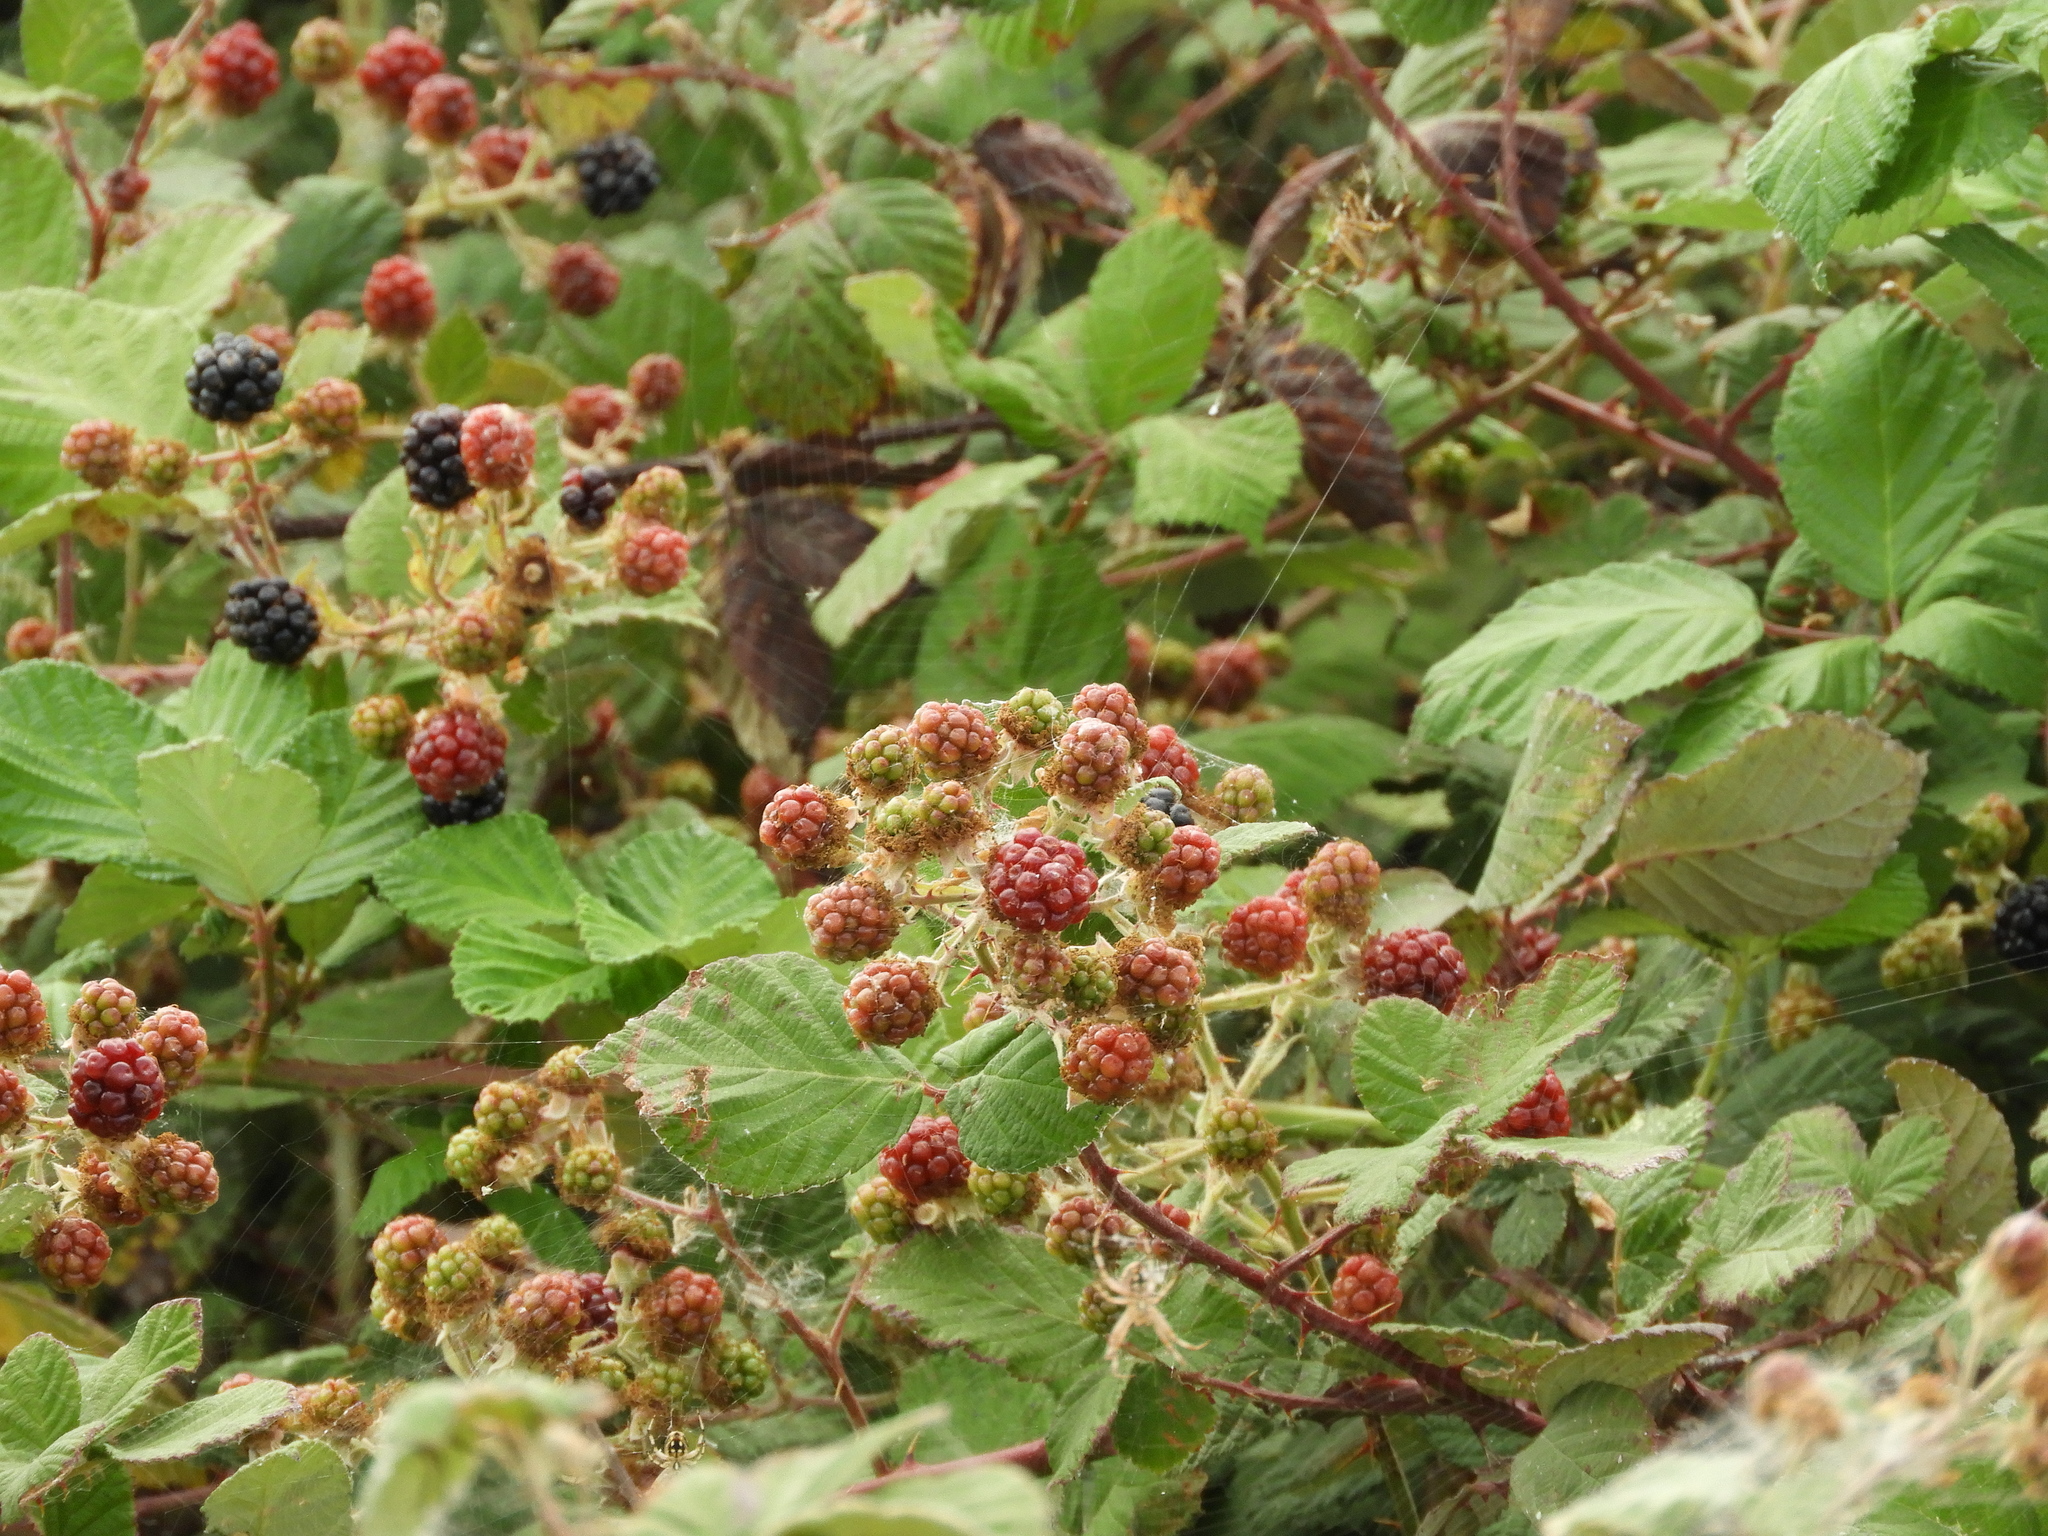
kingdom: Plantae
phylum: Tracheophyta
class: Magnoliopsida
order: Rosales
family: Rosaceae
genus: Rubus
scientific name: Rubus armeniacus
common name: Himalayan blackberry
